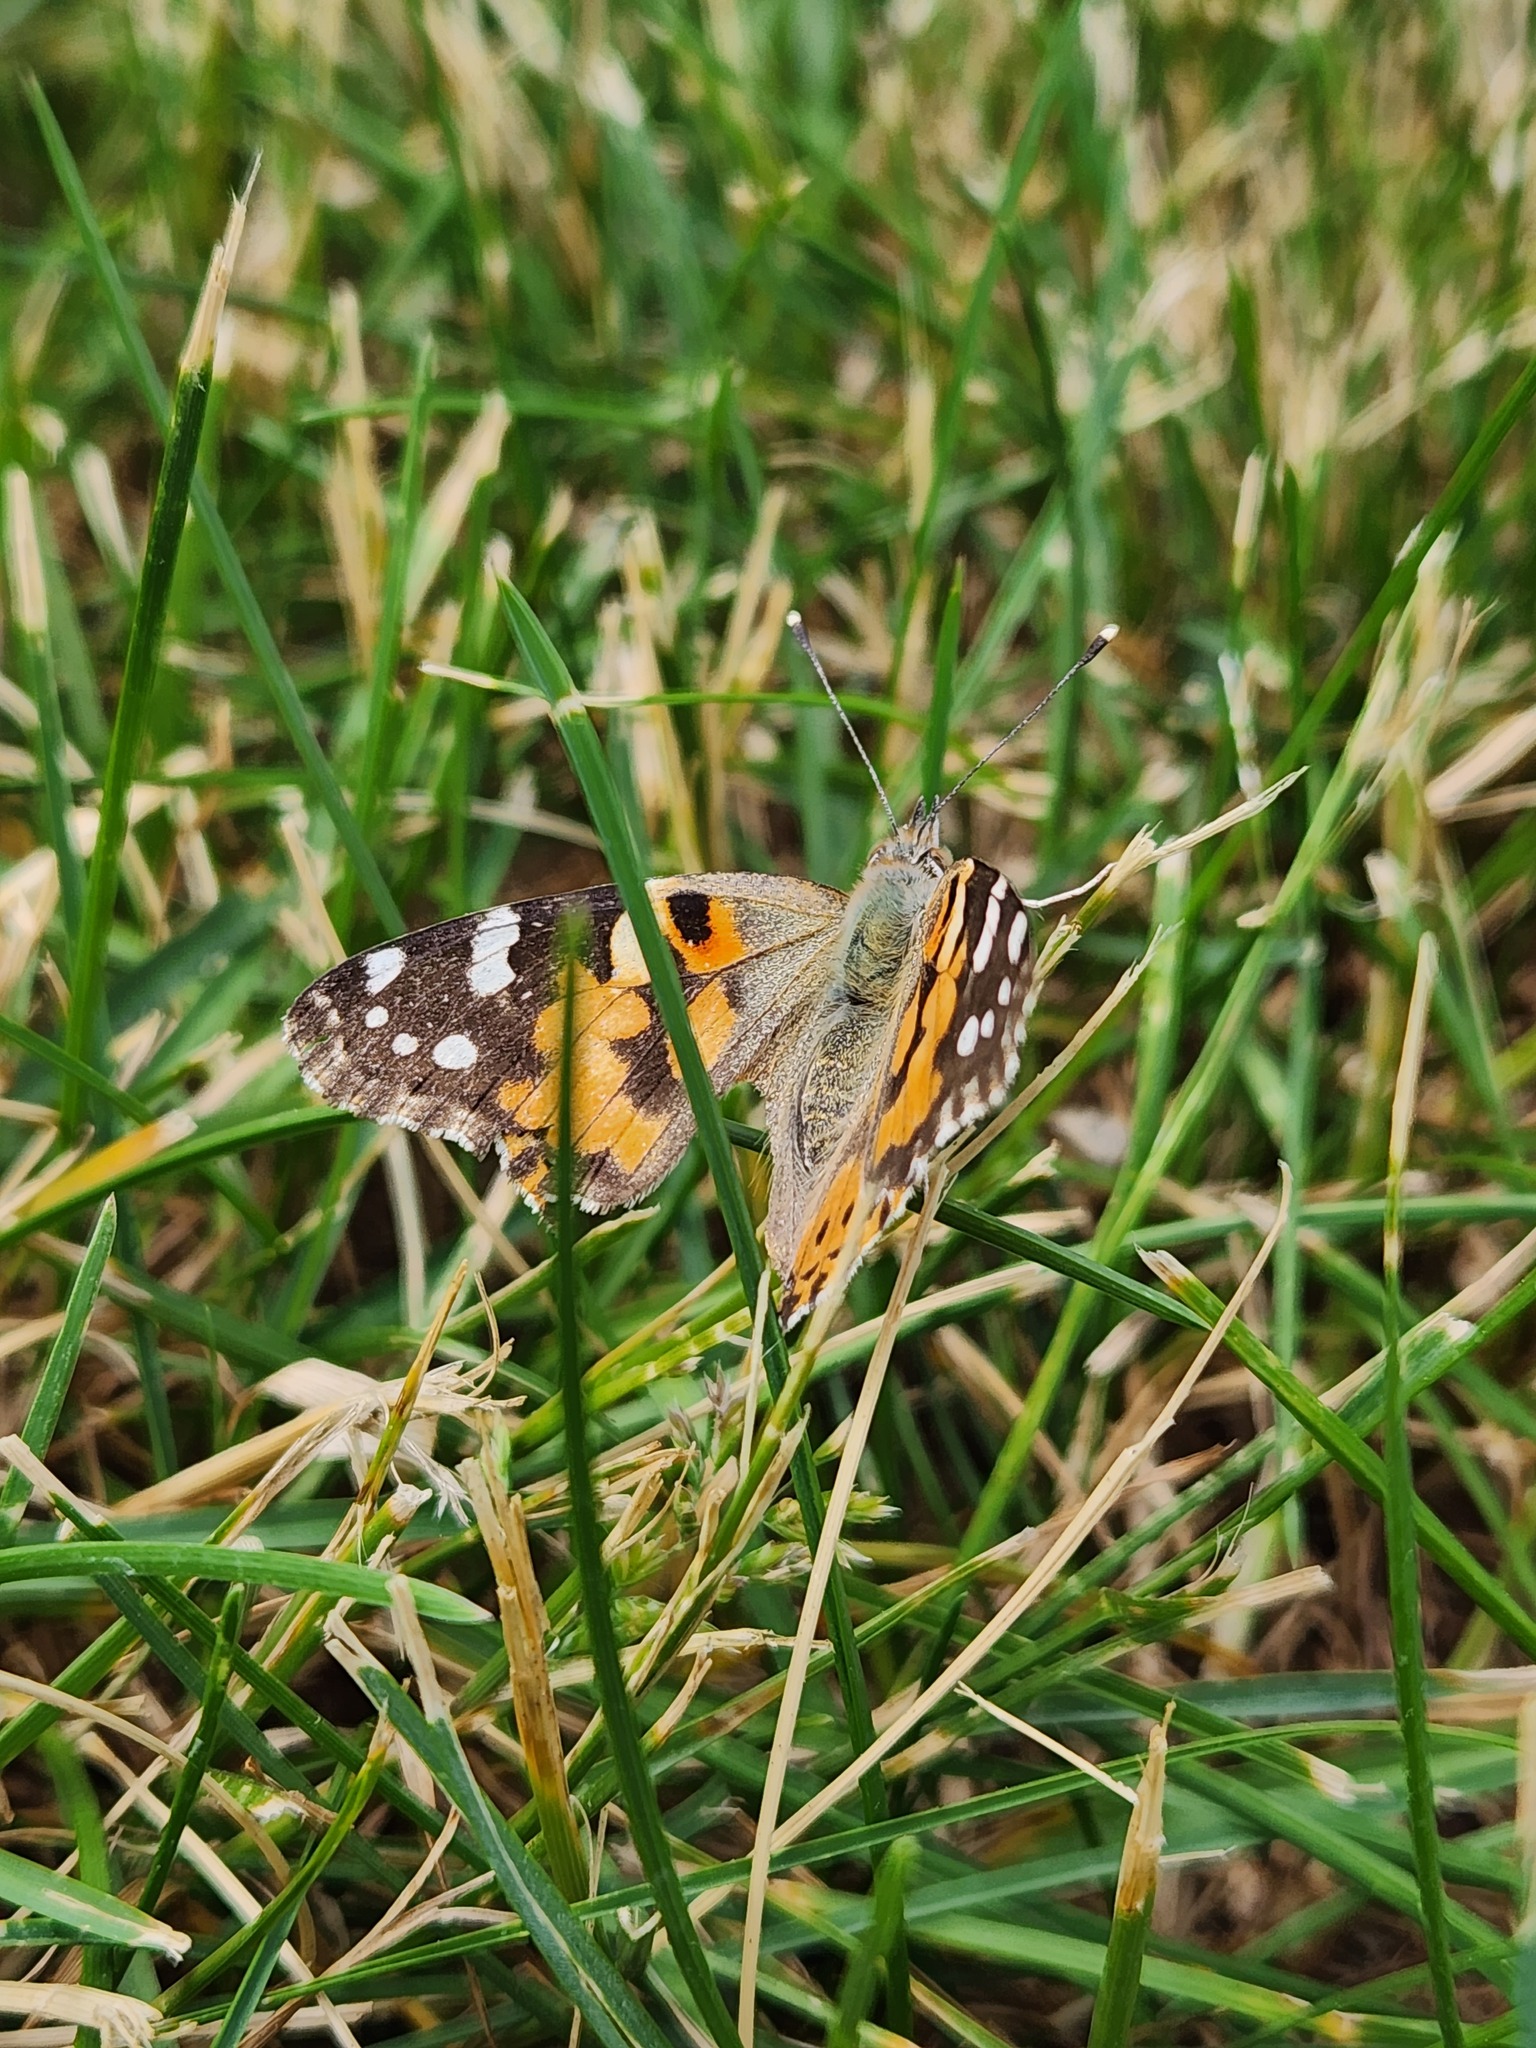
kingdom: Animalia
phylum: Arthropoda
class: Insecta
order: Lepidoptera
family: Nymphalidae
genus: Vanessa
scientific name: Vanessa cardui
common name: Painted lady
